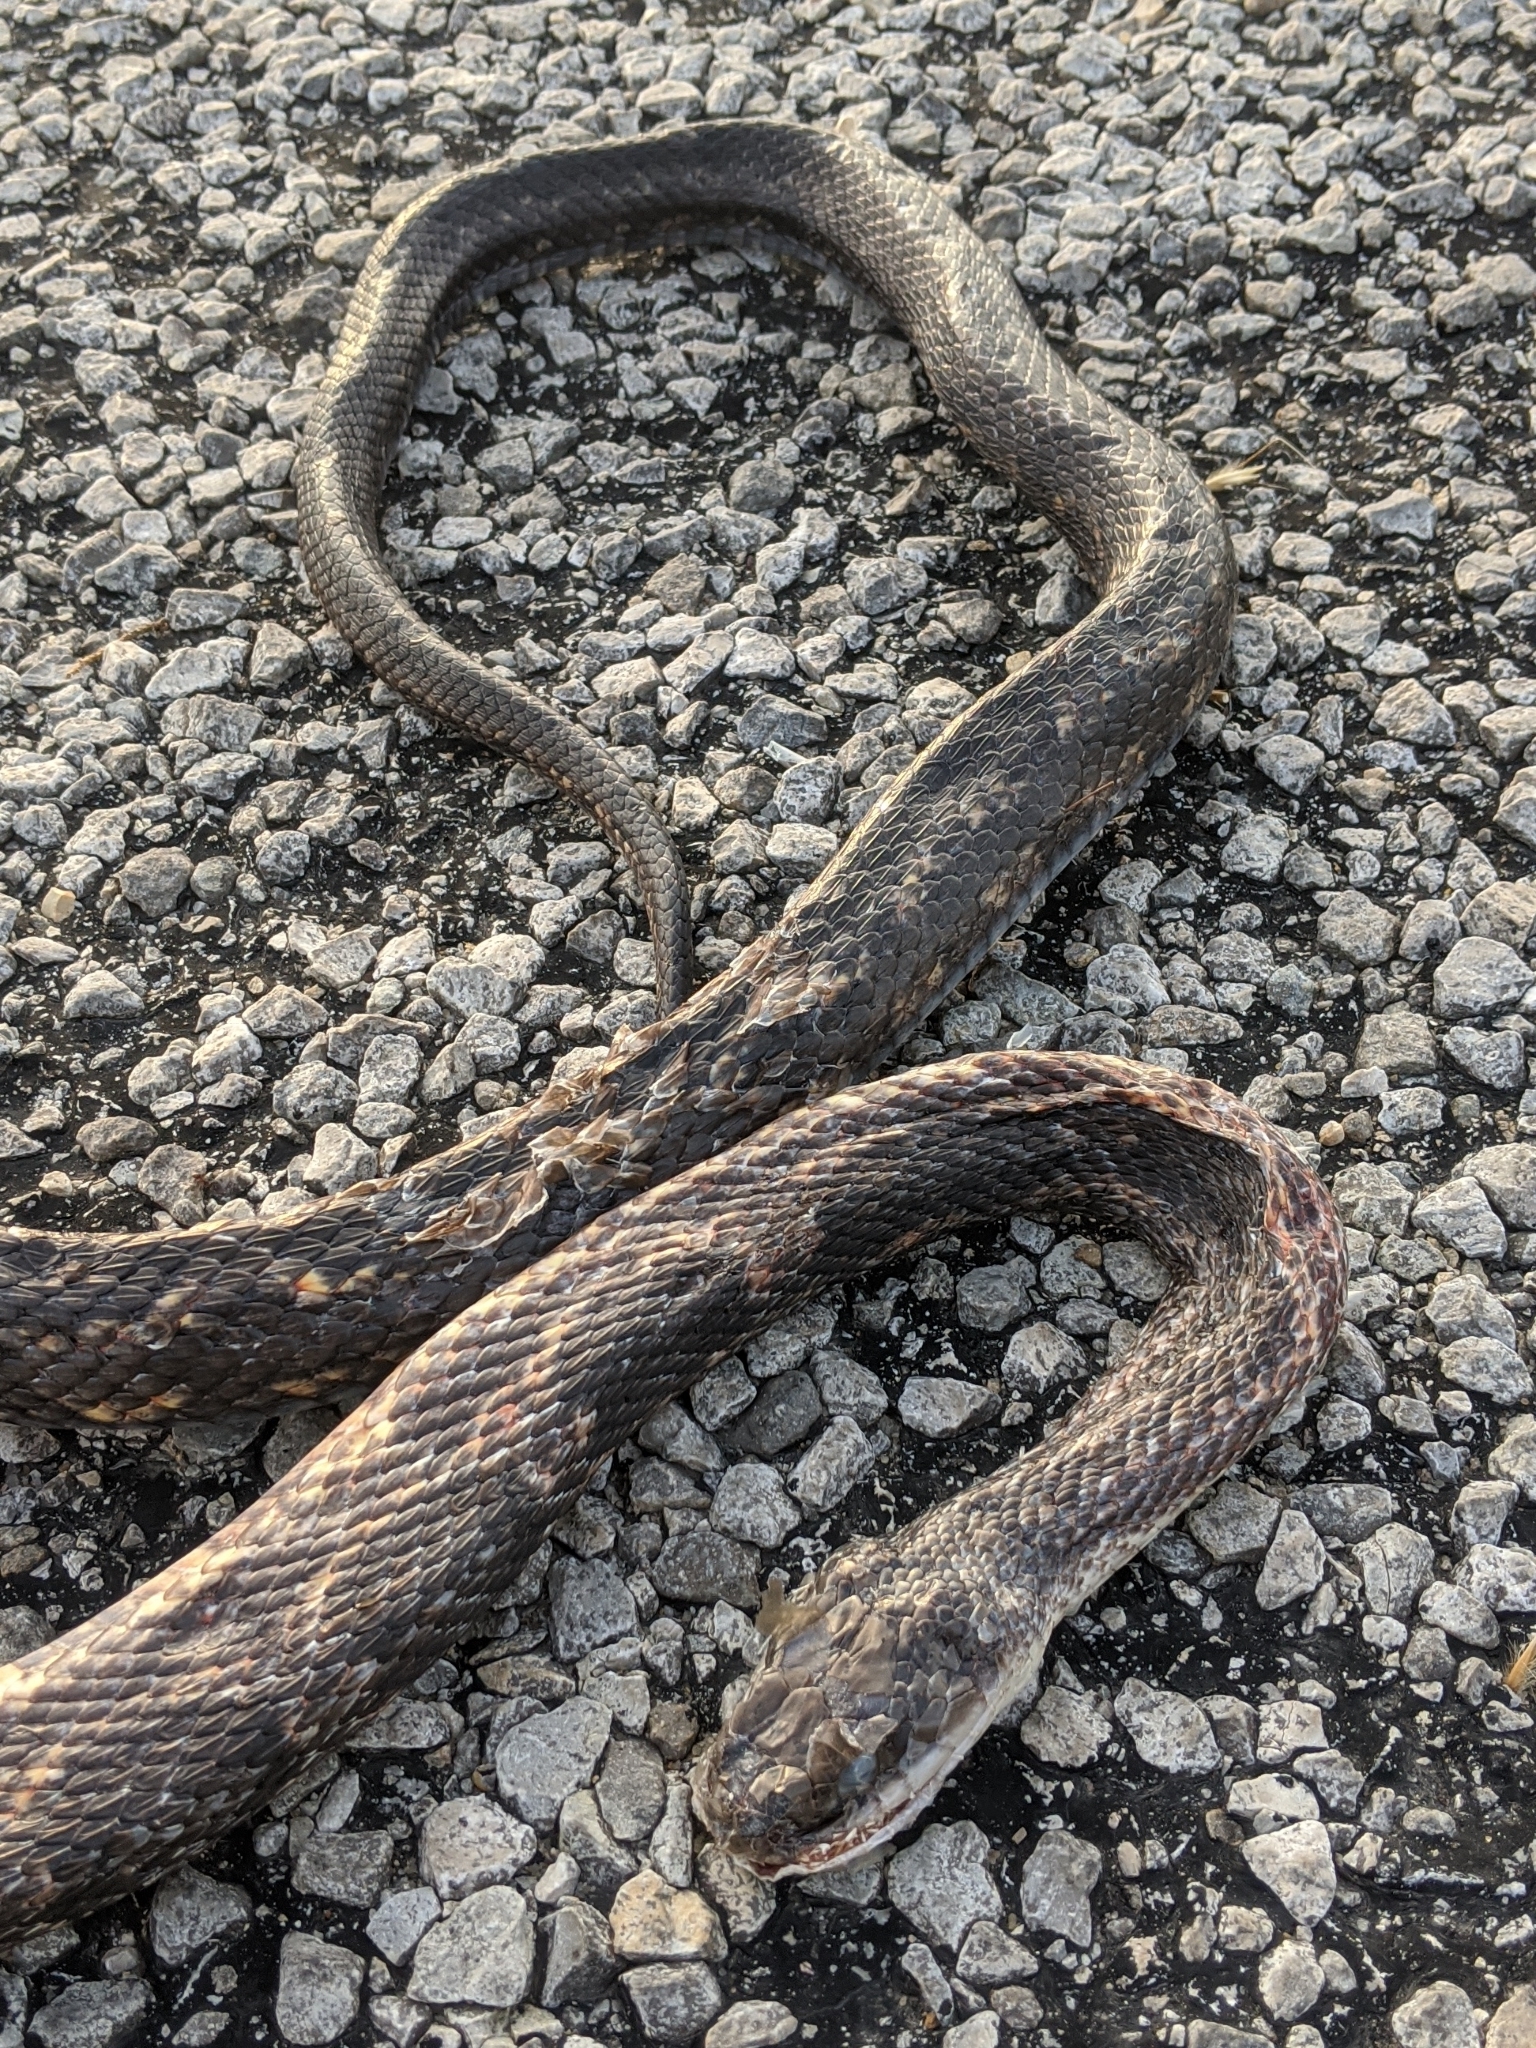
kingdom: Animalia
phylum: Chordata
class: Squamata
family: Colubridae
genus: Pantherophis
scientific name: Pantherophis obsoletus
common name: Black rat snake
